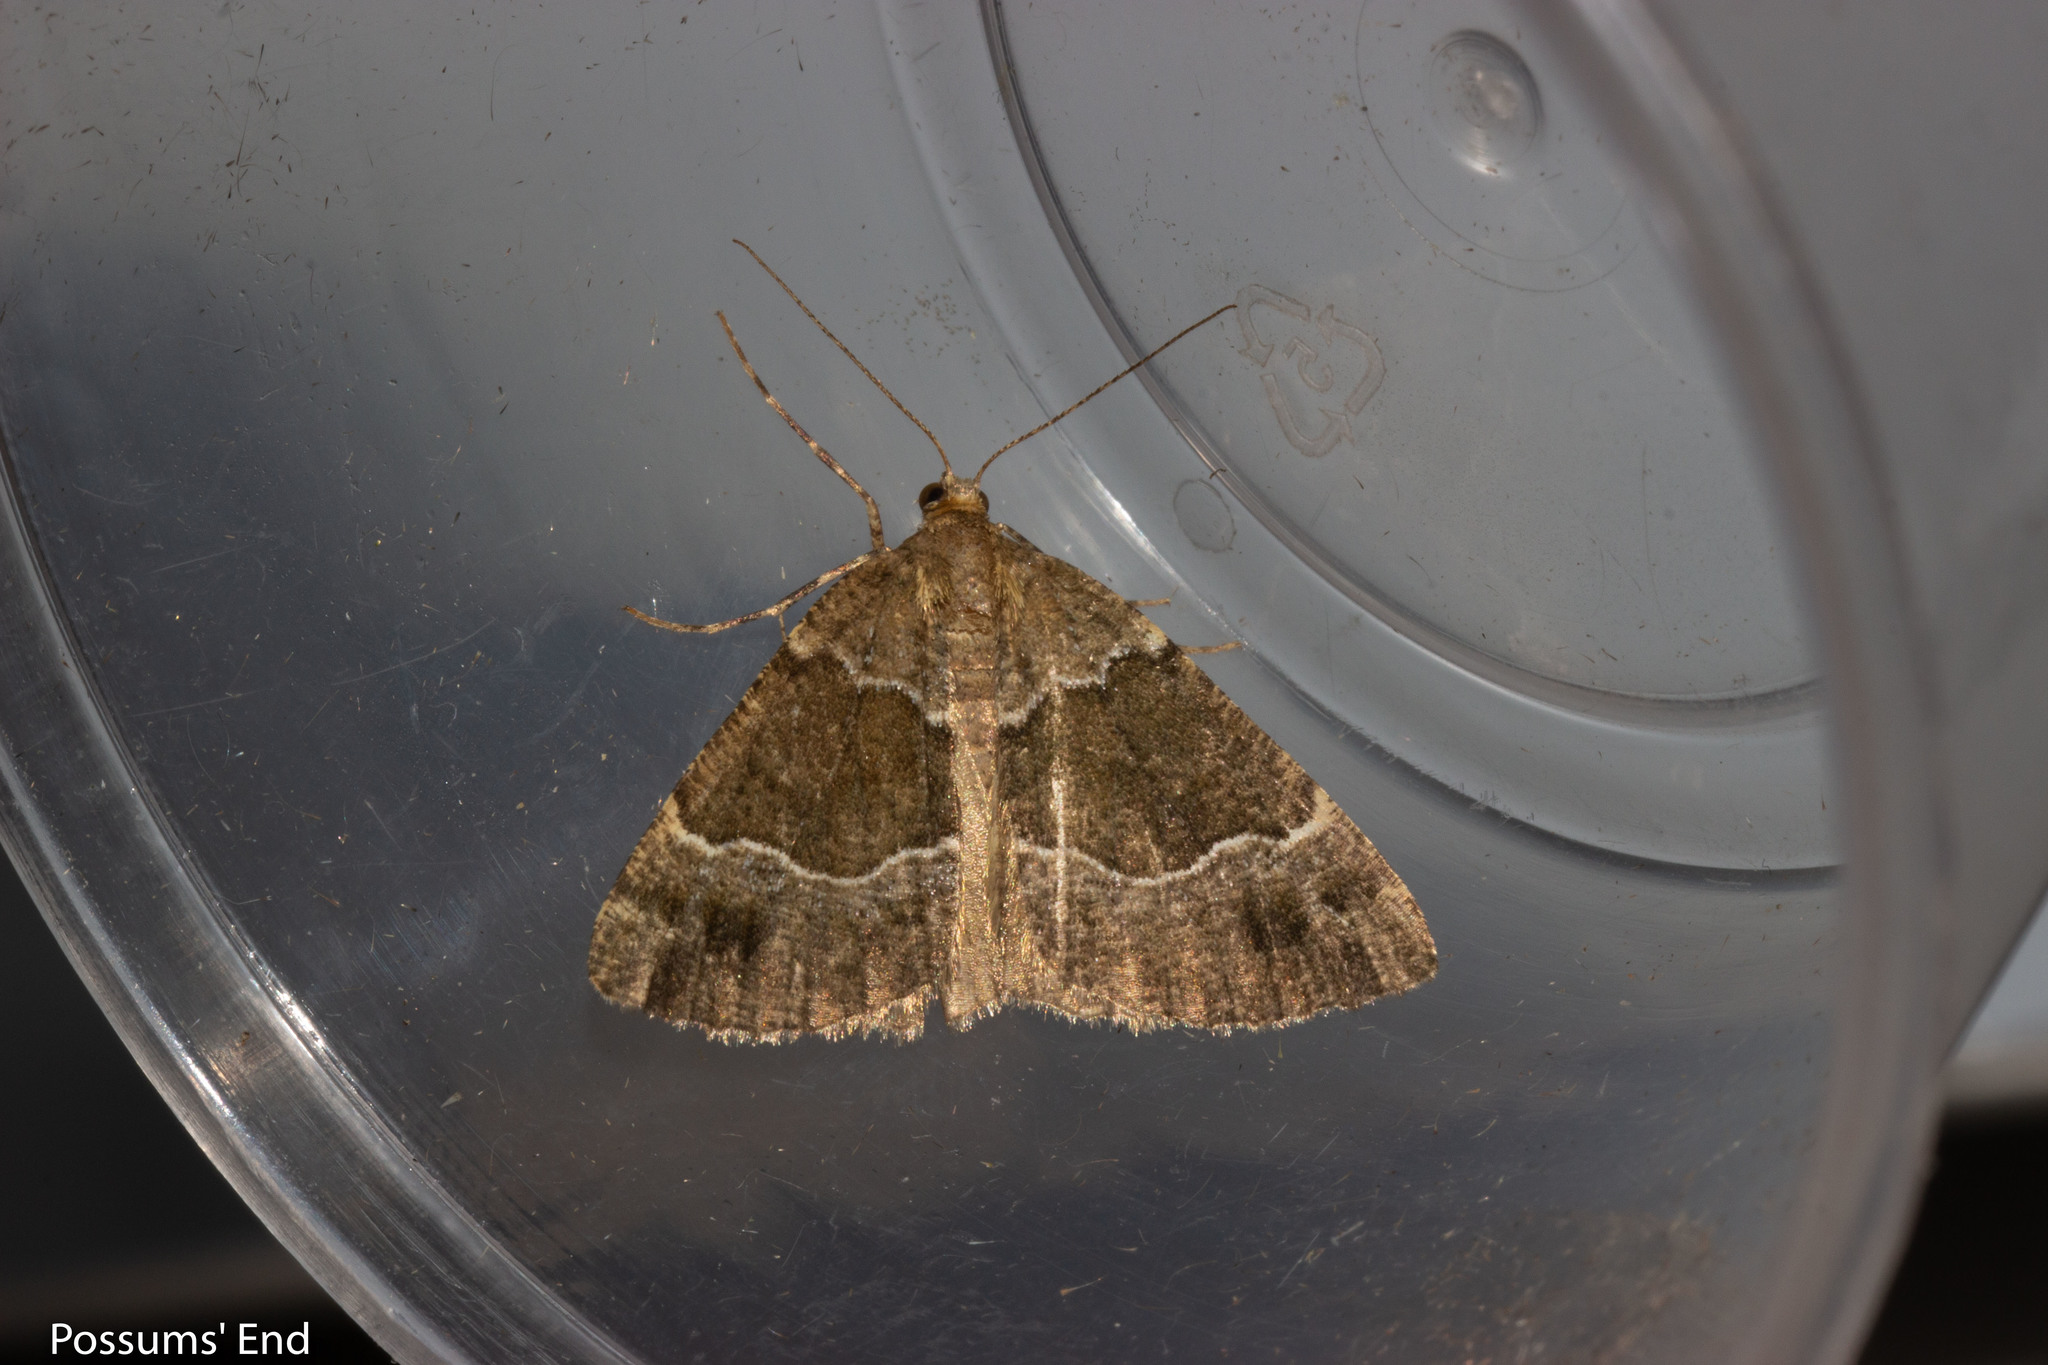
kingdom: Animalia
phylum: Arthropoda
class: Insecta
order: Lepidoptera
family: Geometridae
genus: Pseudocoremia
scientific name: Pseudocoremia
